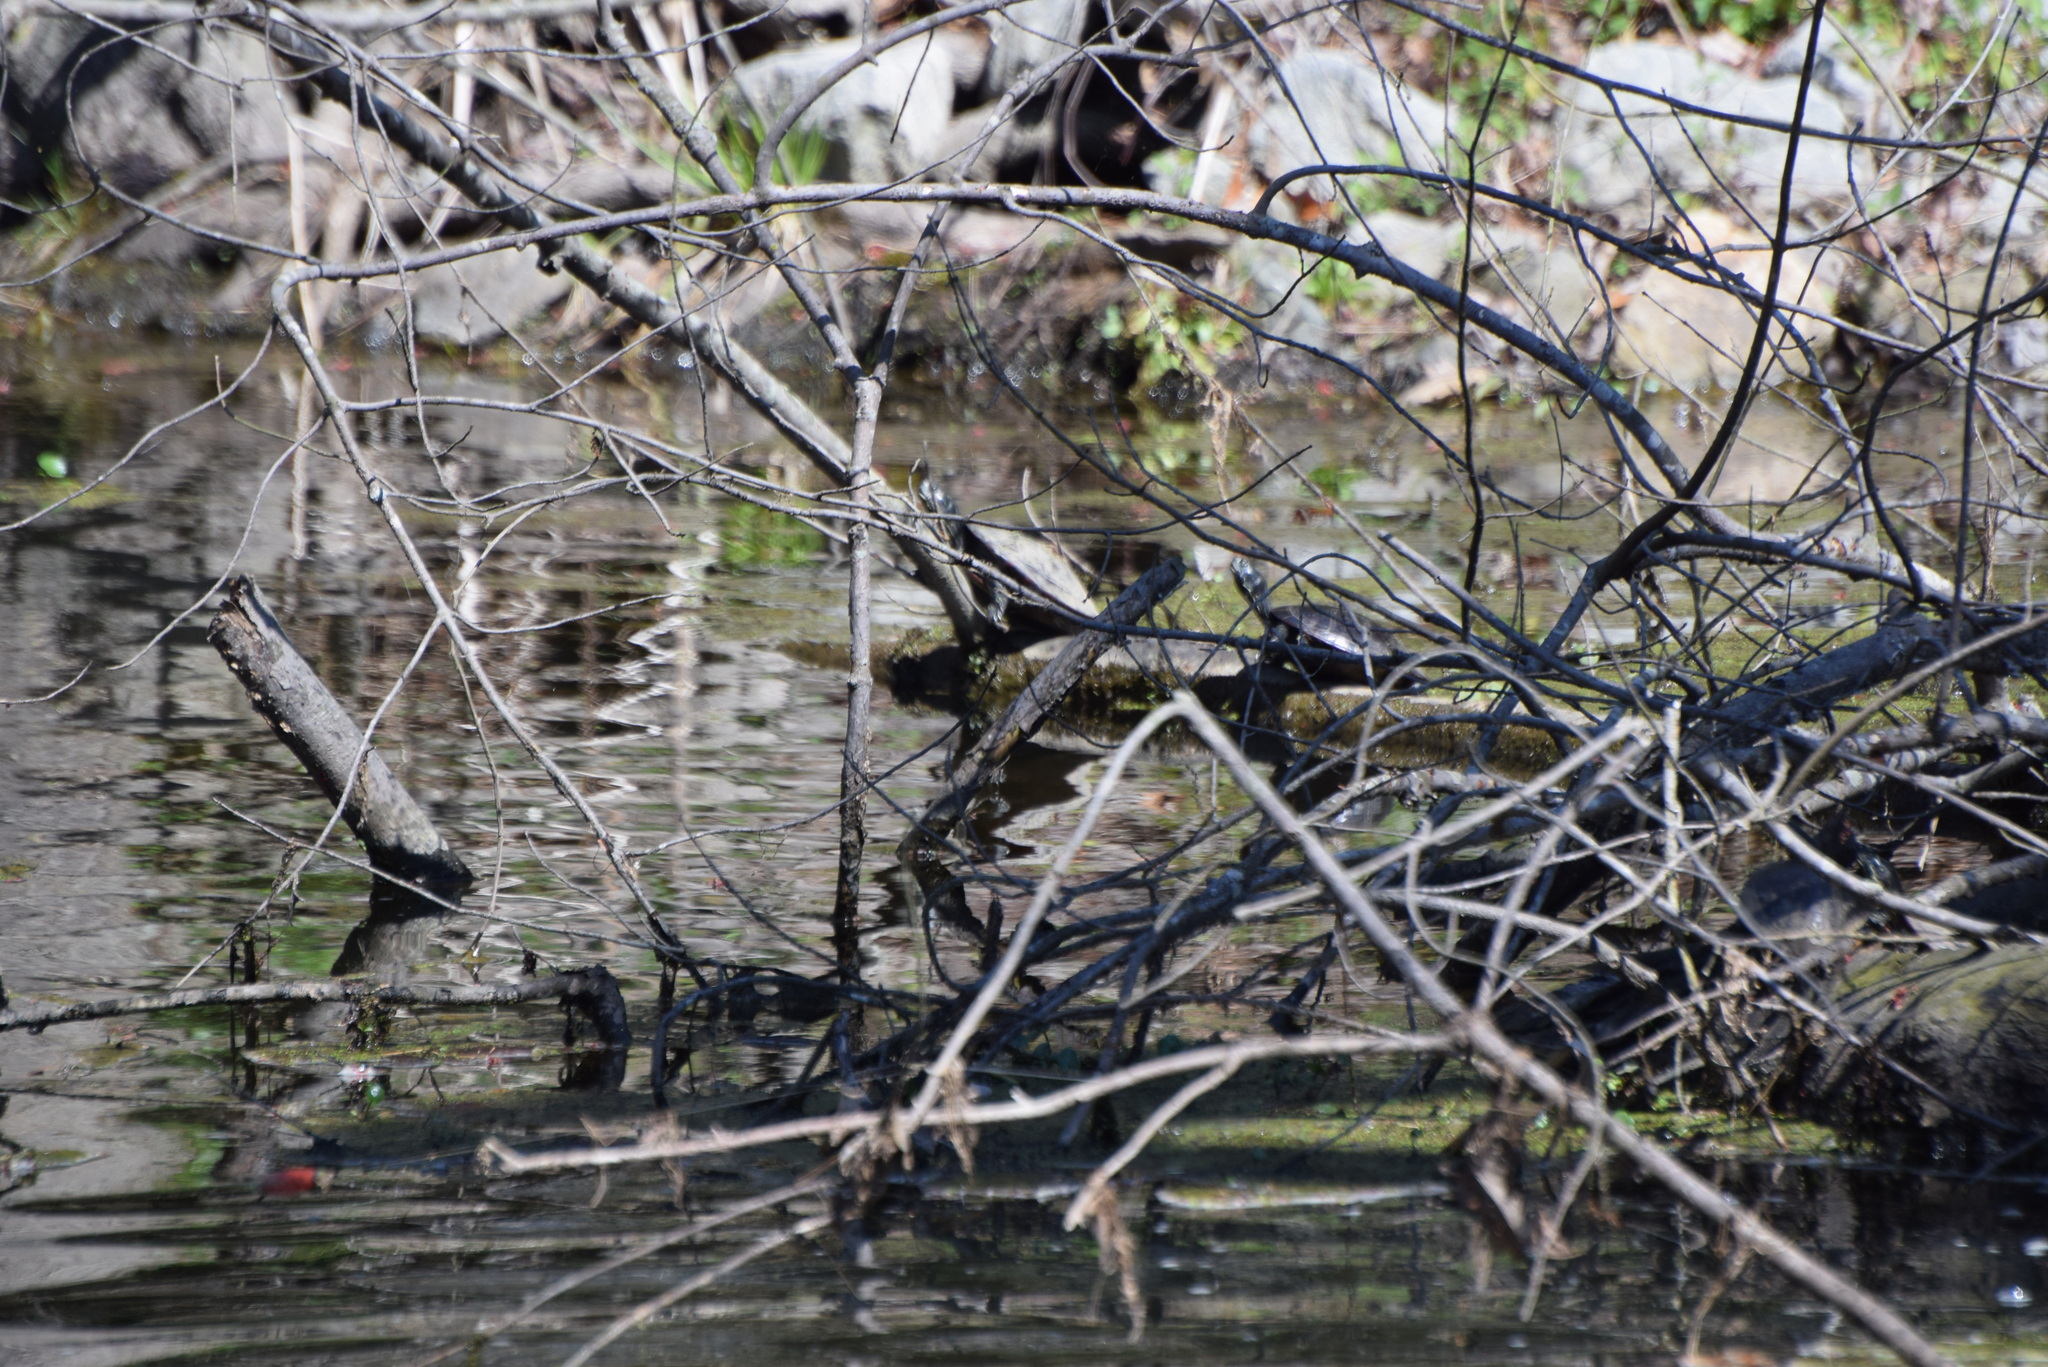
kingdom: Animalia
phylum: Chordata
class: Testudines
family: Emydidae
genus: Pseudemys
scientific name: Pseudemys rubriventris
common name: American red-bellied turtle
